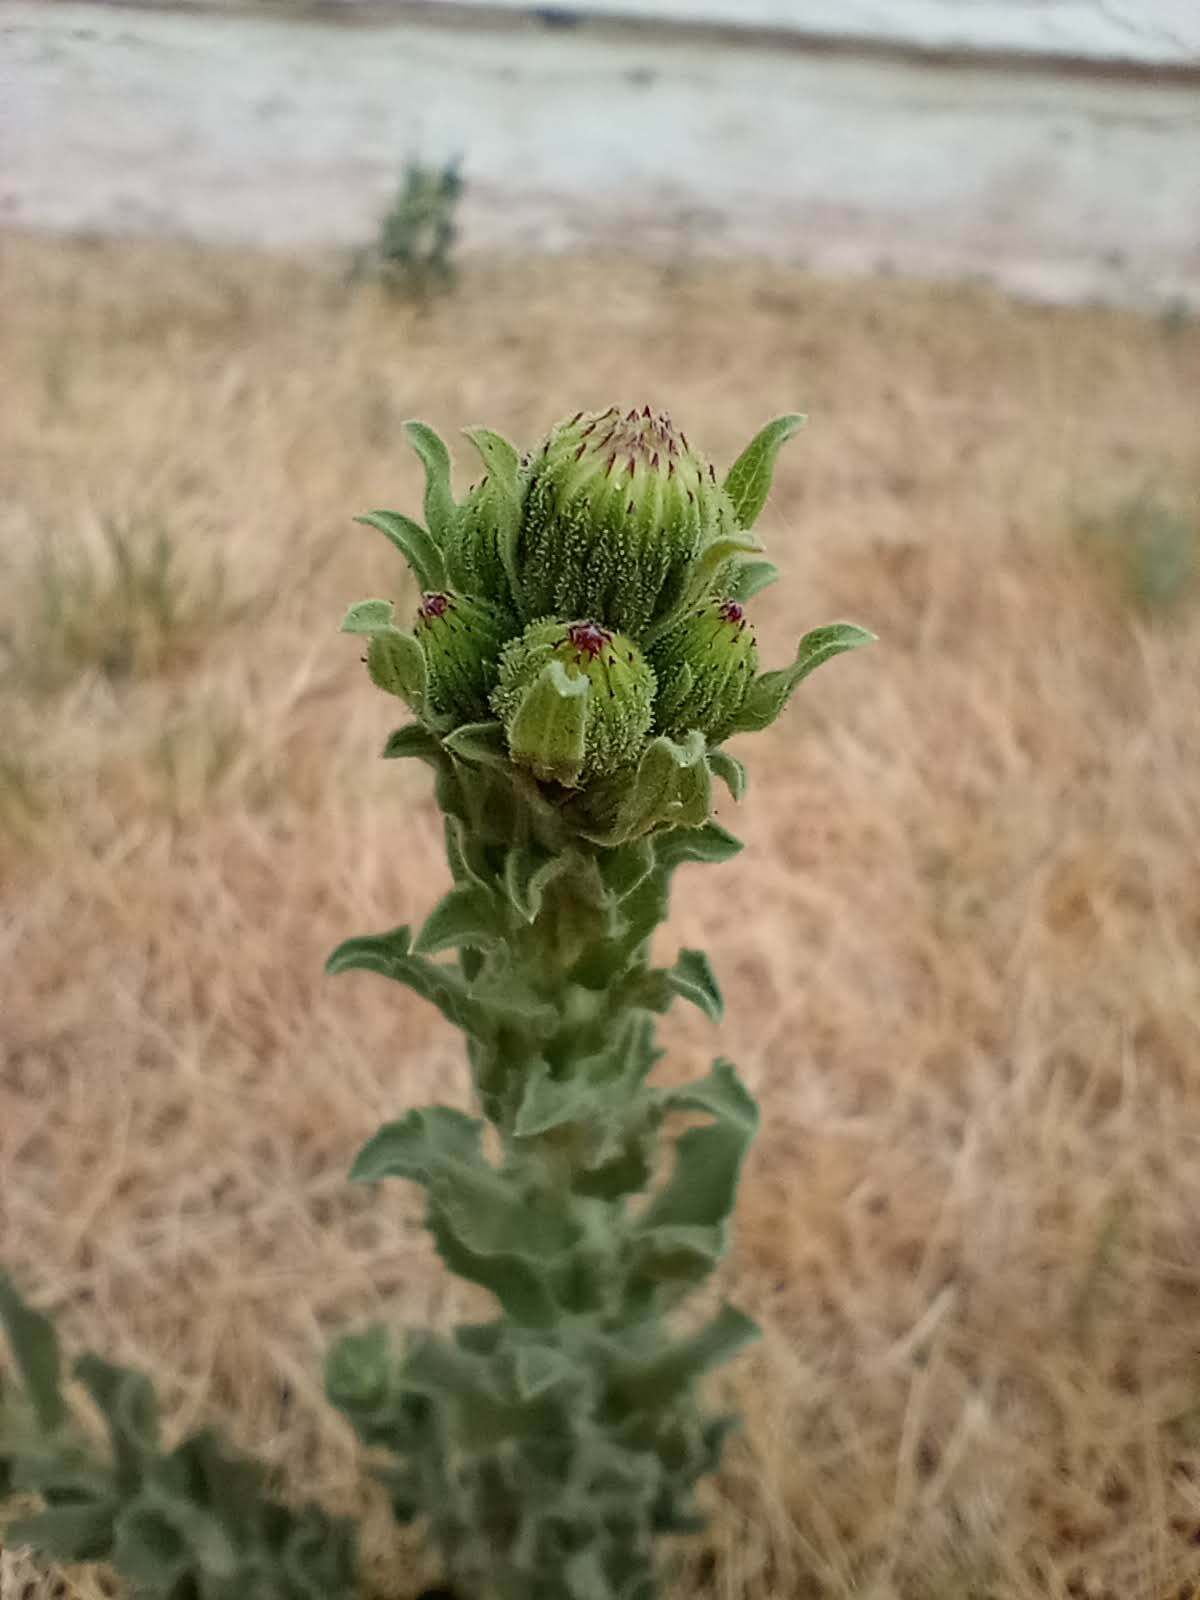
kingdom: Plantae
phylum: Tracheophyta
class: Magnoliopsida
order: Asterales
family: Asteraceae
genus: Heterotheca
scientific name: Heterotheca grandiflora
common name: Telegraphweed
